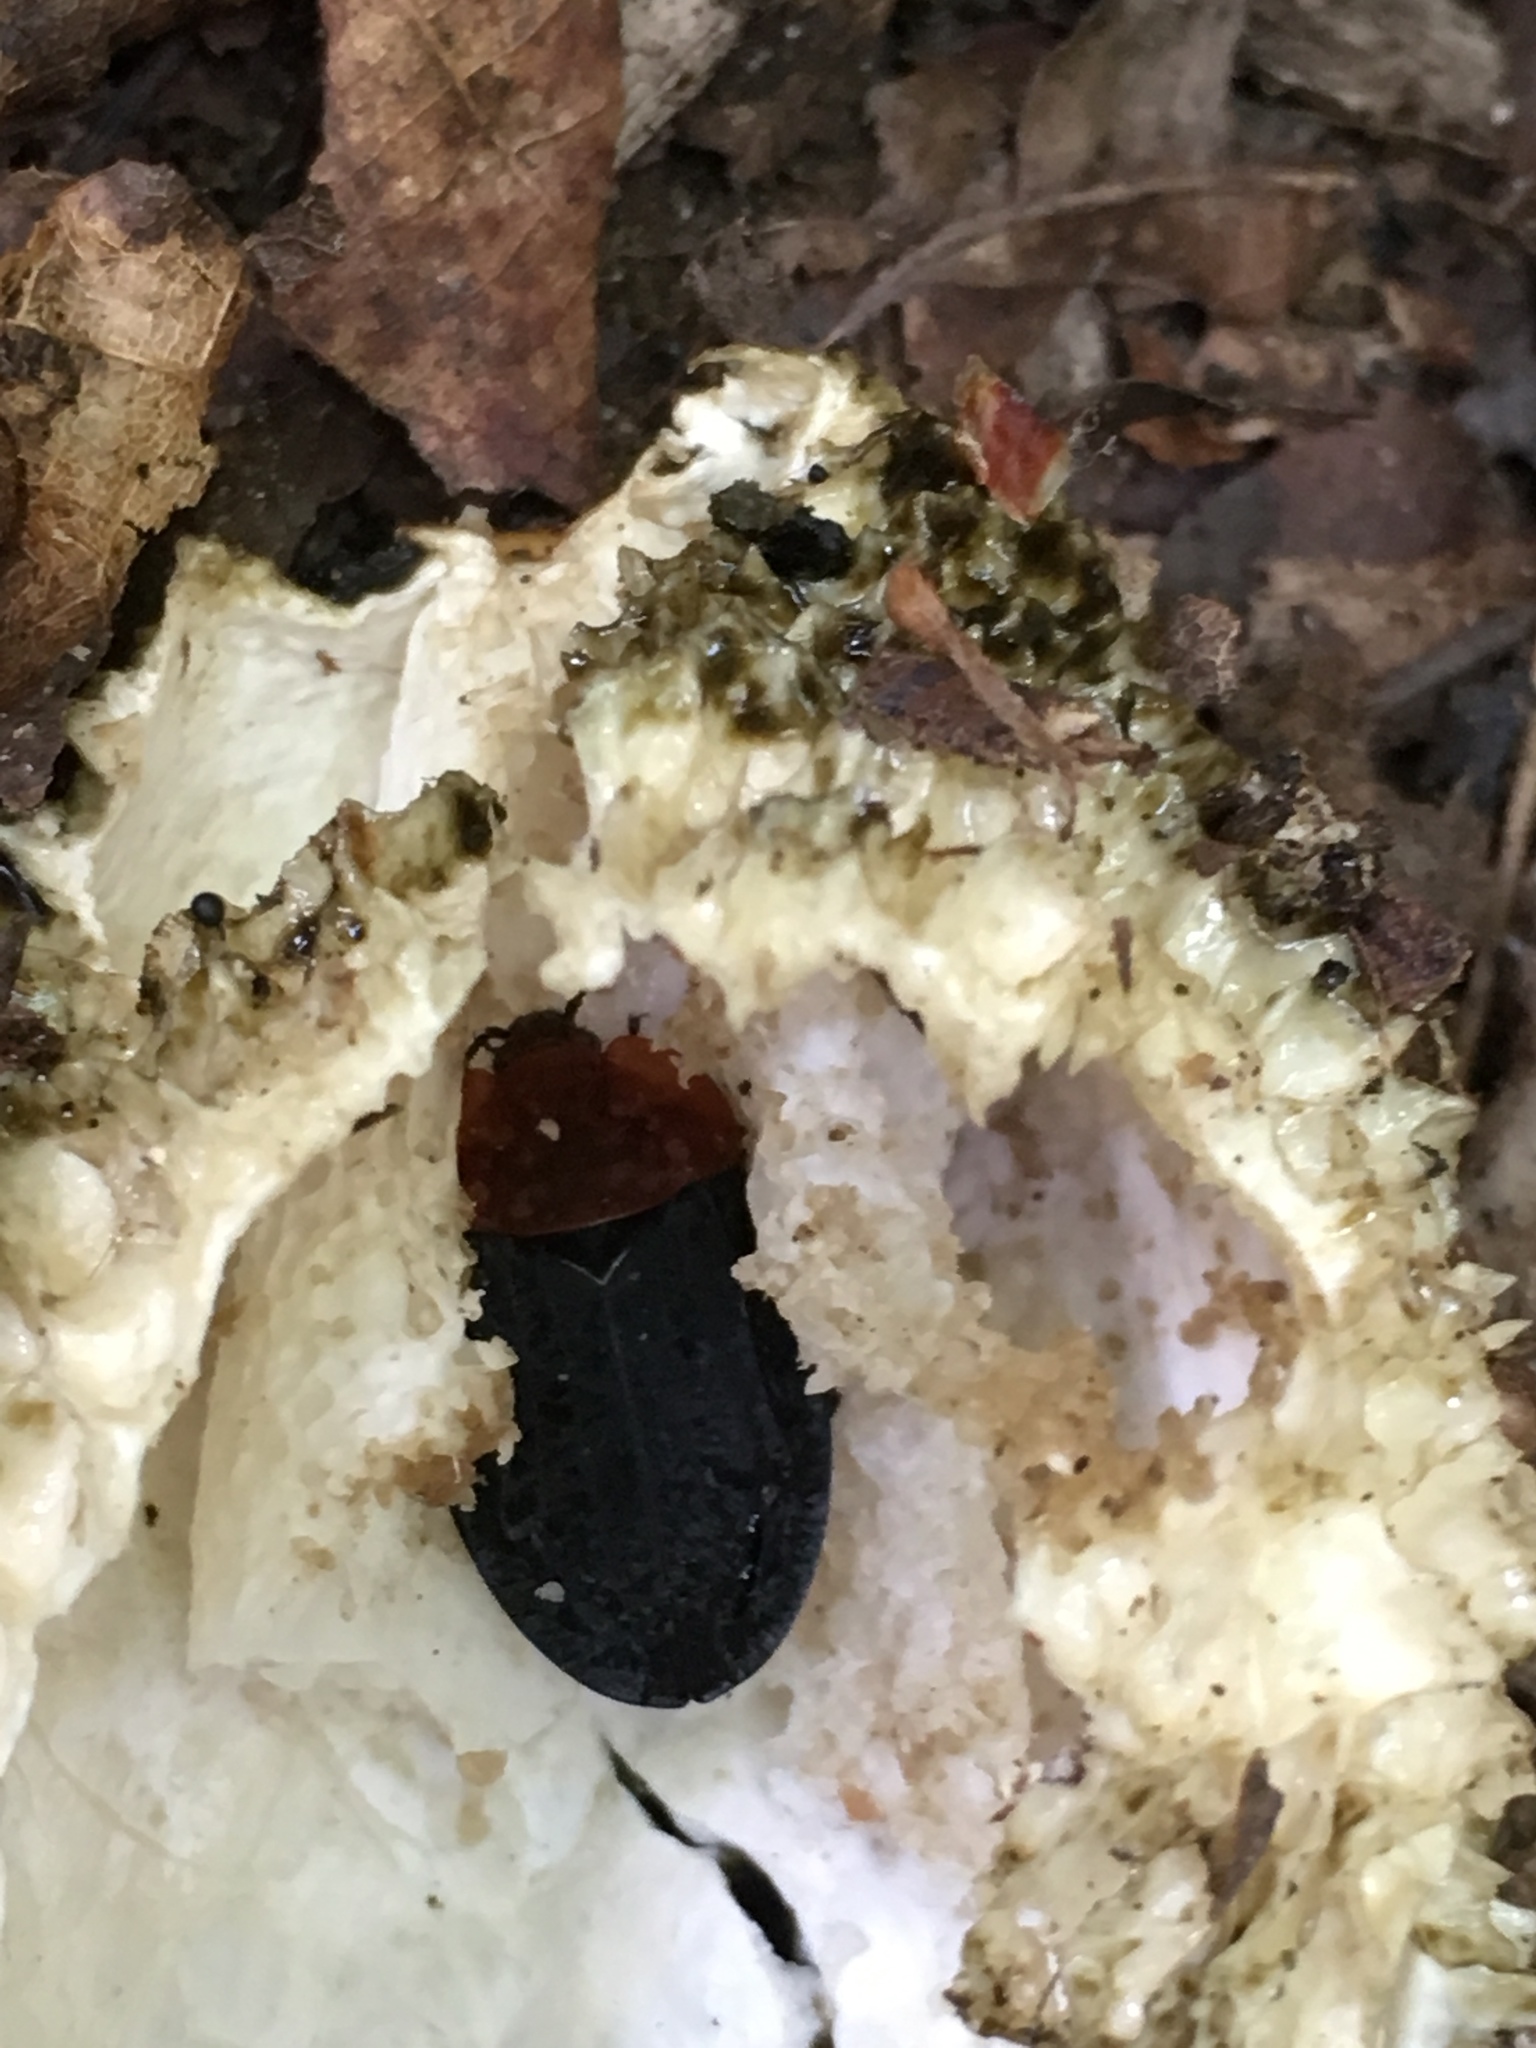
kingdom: Animalia
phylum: Arthropoda
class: Insecta
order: Coleoptera
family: Staphylinidae
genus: Oiceoptoma
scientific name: Oiceoptoma thoracicum
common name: Red-breasted carrion beetle
